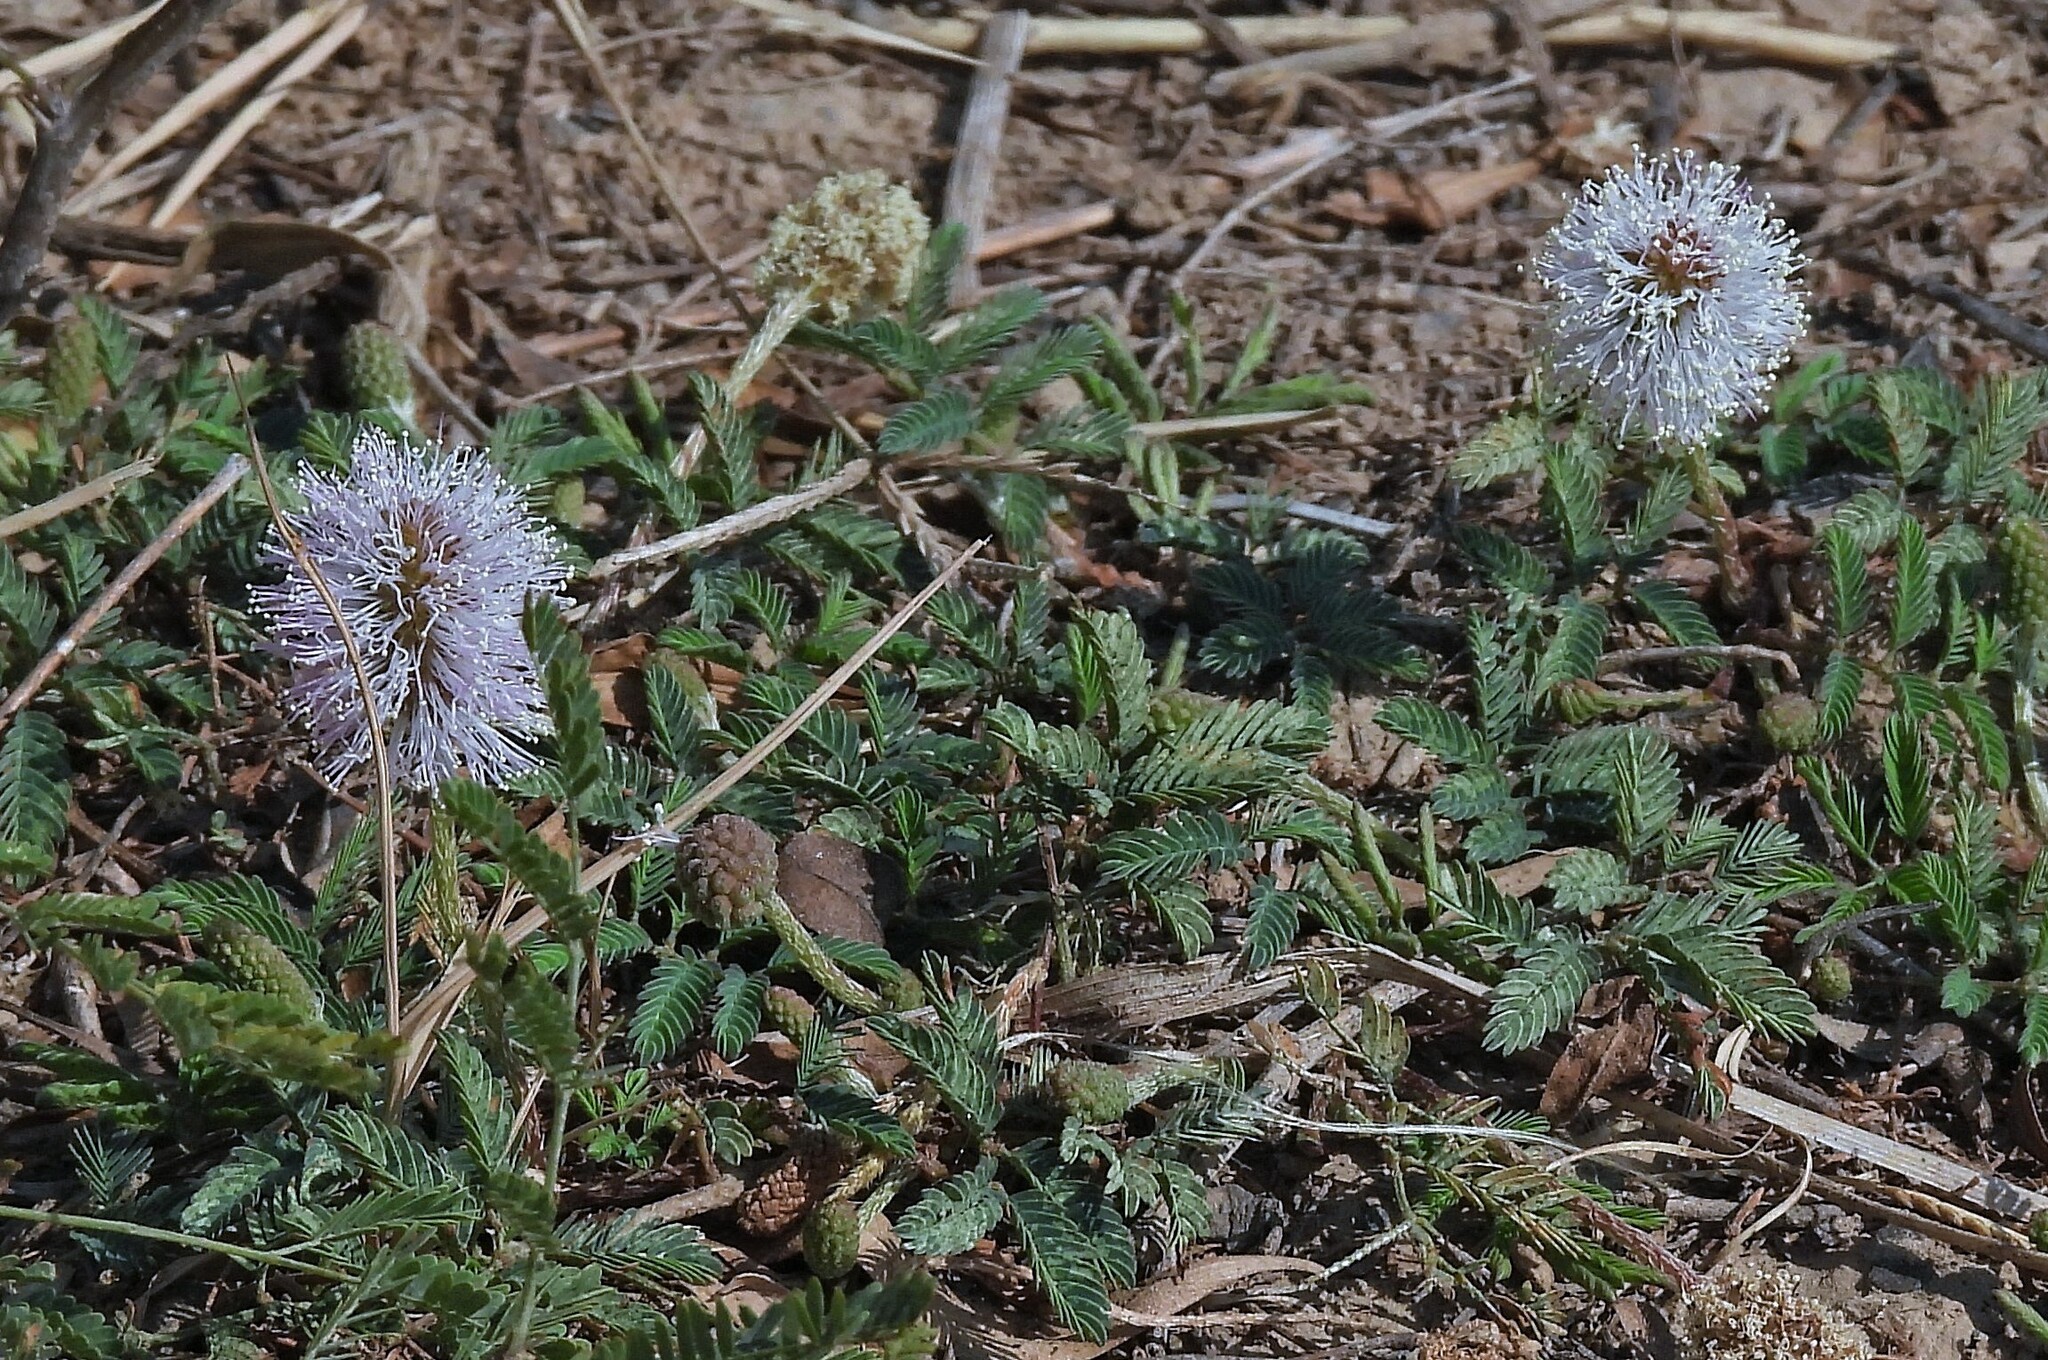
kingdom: Plantae
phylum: Tracheophyta
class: Magnoliopsida
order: Fabales
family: Fabaceae
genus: Mimosa
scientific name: Mimosa strigillosa
